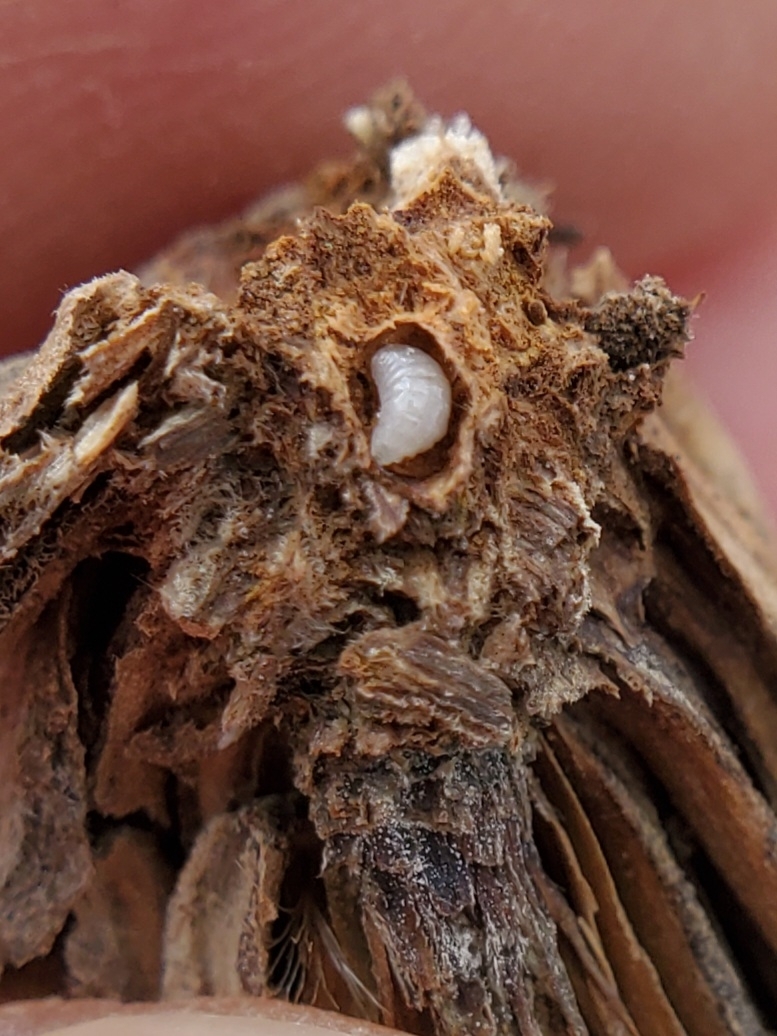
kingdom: Animalia
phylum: Arthropoda
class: Insecta
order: Diptera
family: Tephritidae
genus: Procecidochares
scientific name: Procecidochares atra
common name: Goldenrod brussels sprout gall fly
